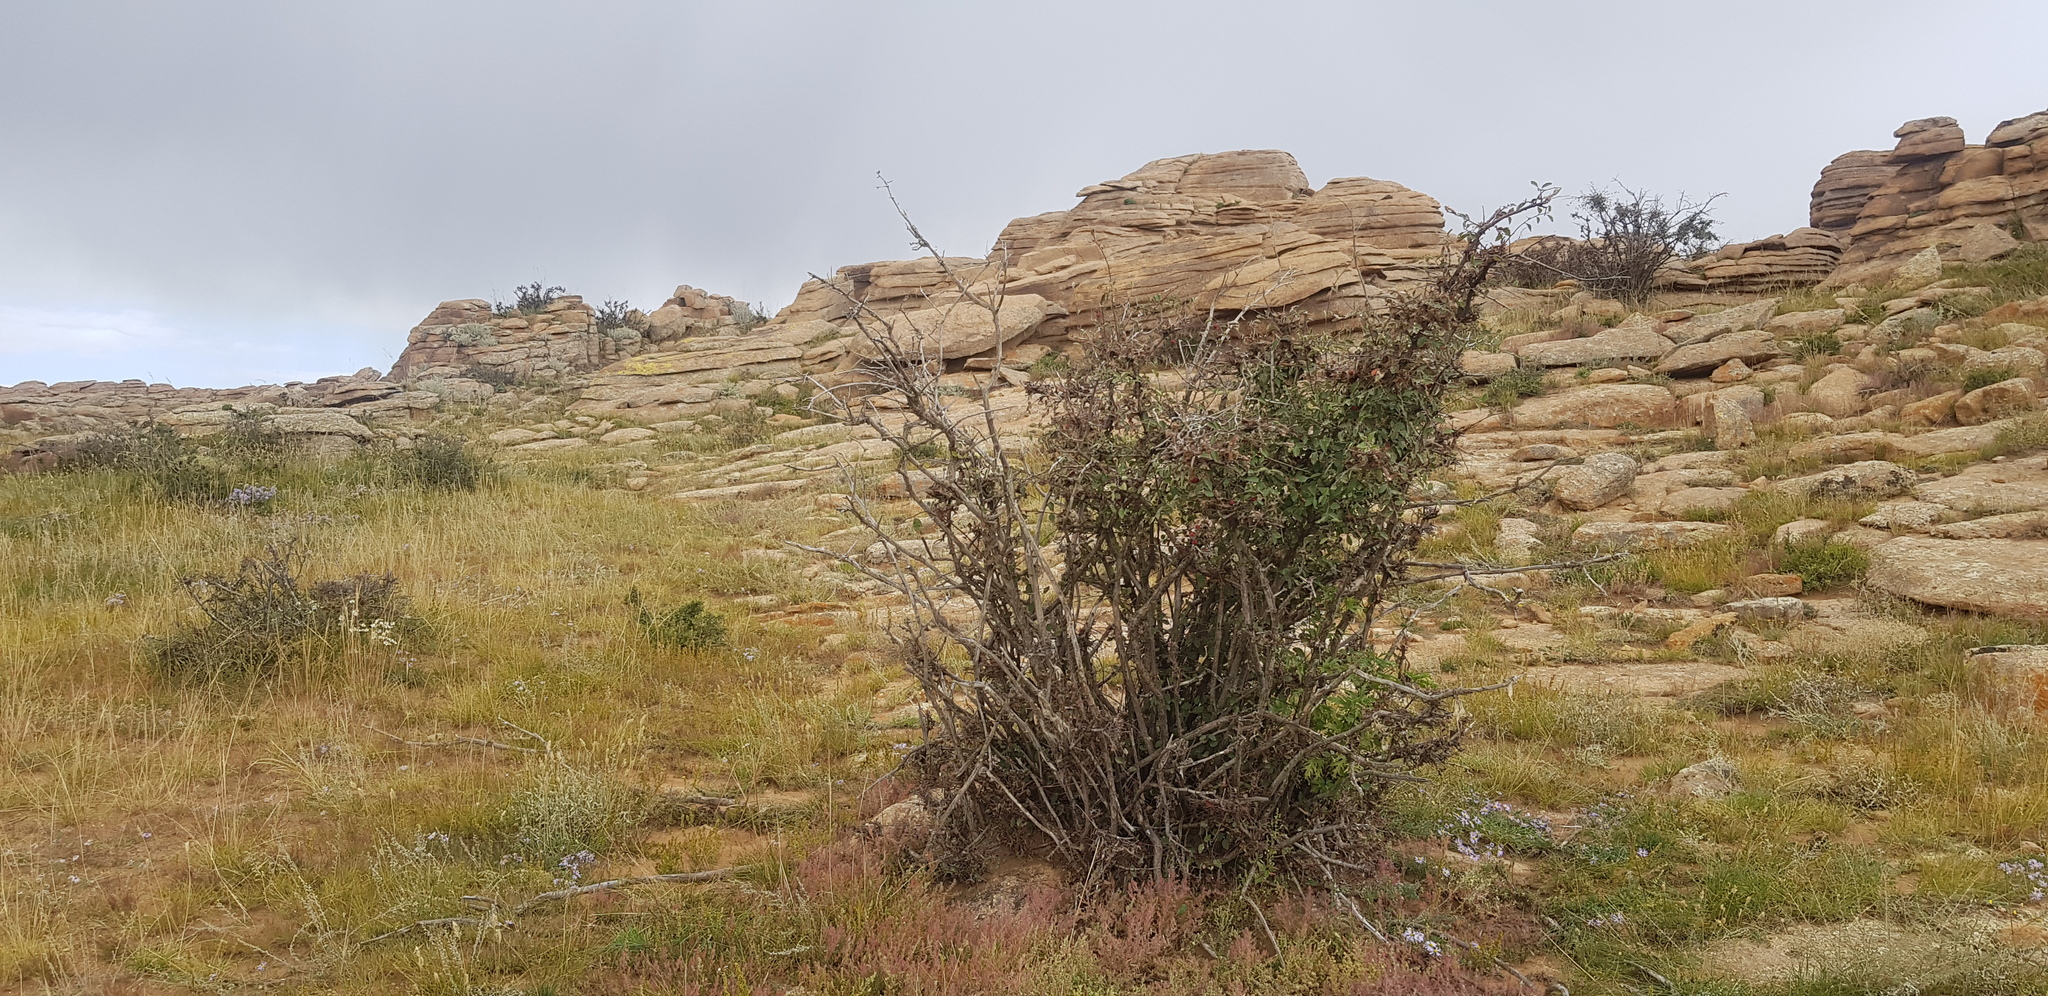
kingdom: Plantae
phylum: Tracheophyta
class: Magnoliopsida
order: Rosales
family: Rosaceae
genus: Prunus
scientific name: Prunus pedunculata
